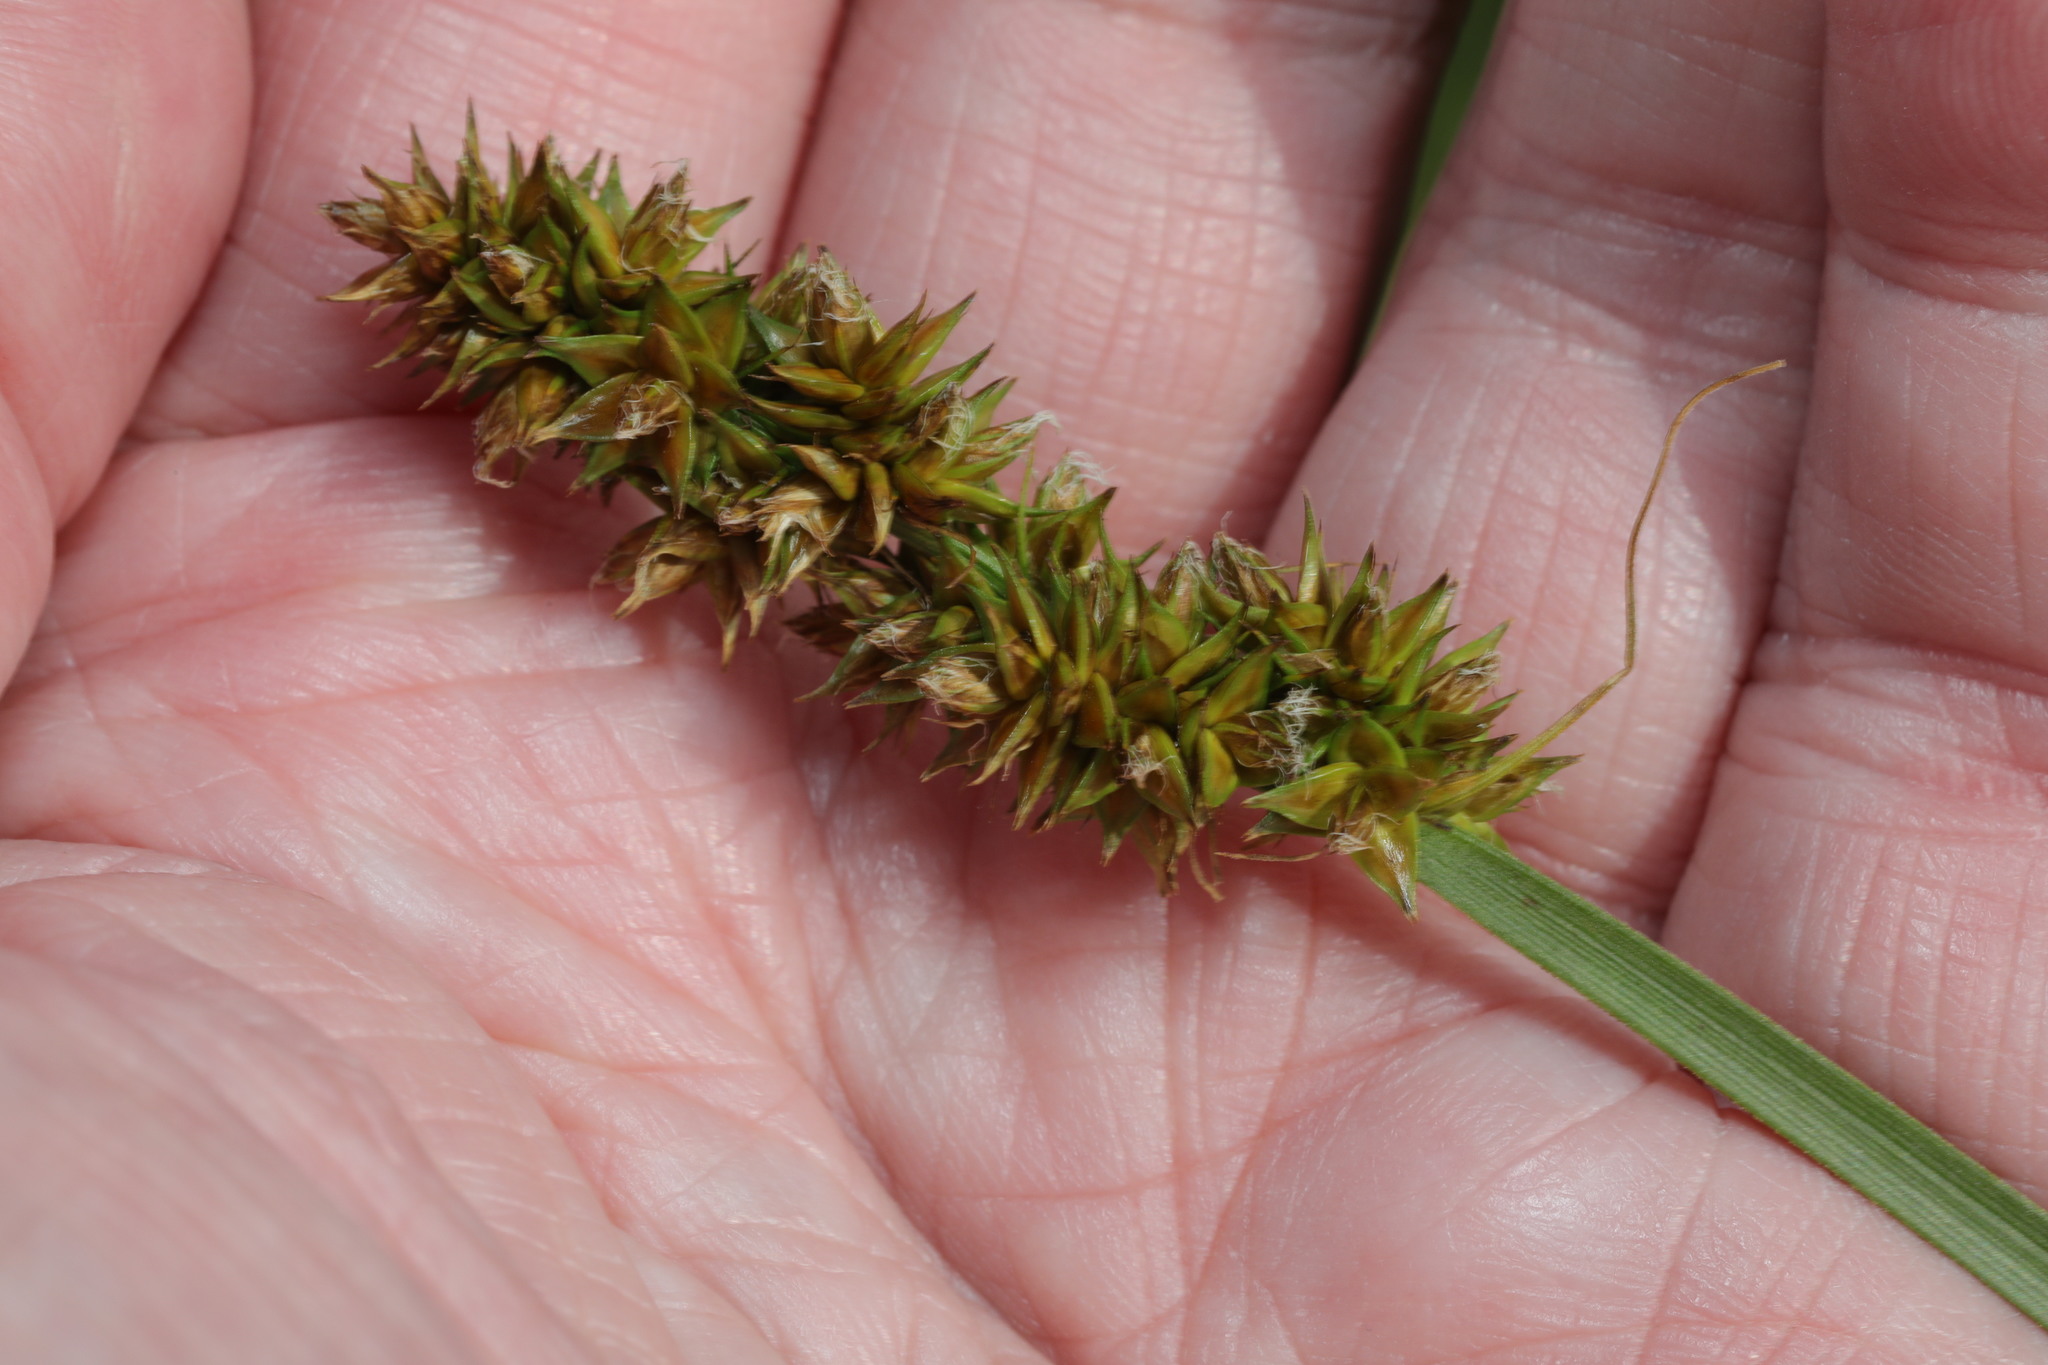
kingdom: Plantae
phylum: Tracheophyta
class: Liliopsida
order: Poales
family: Cyperaceae
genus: Carex
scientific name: Carex otrubae
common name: False fox-sedge
